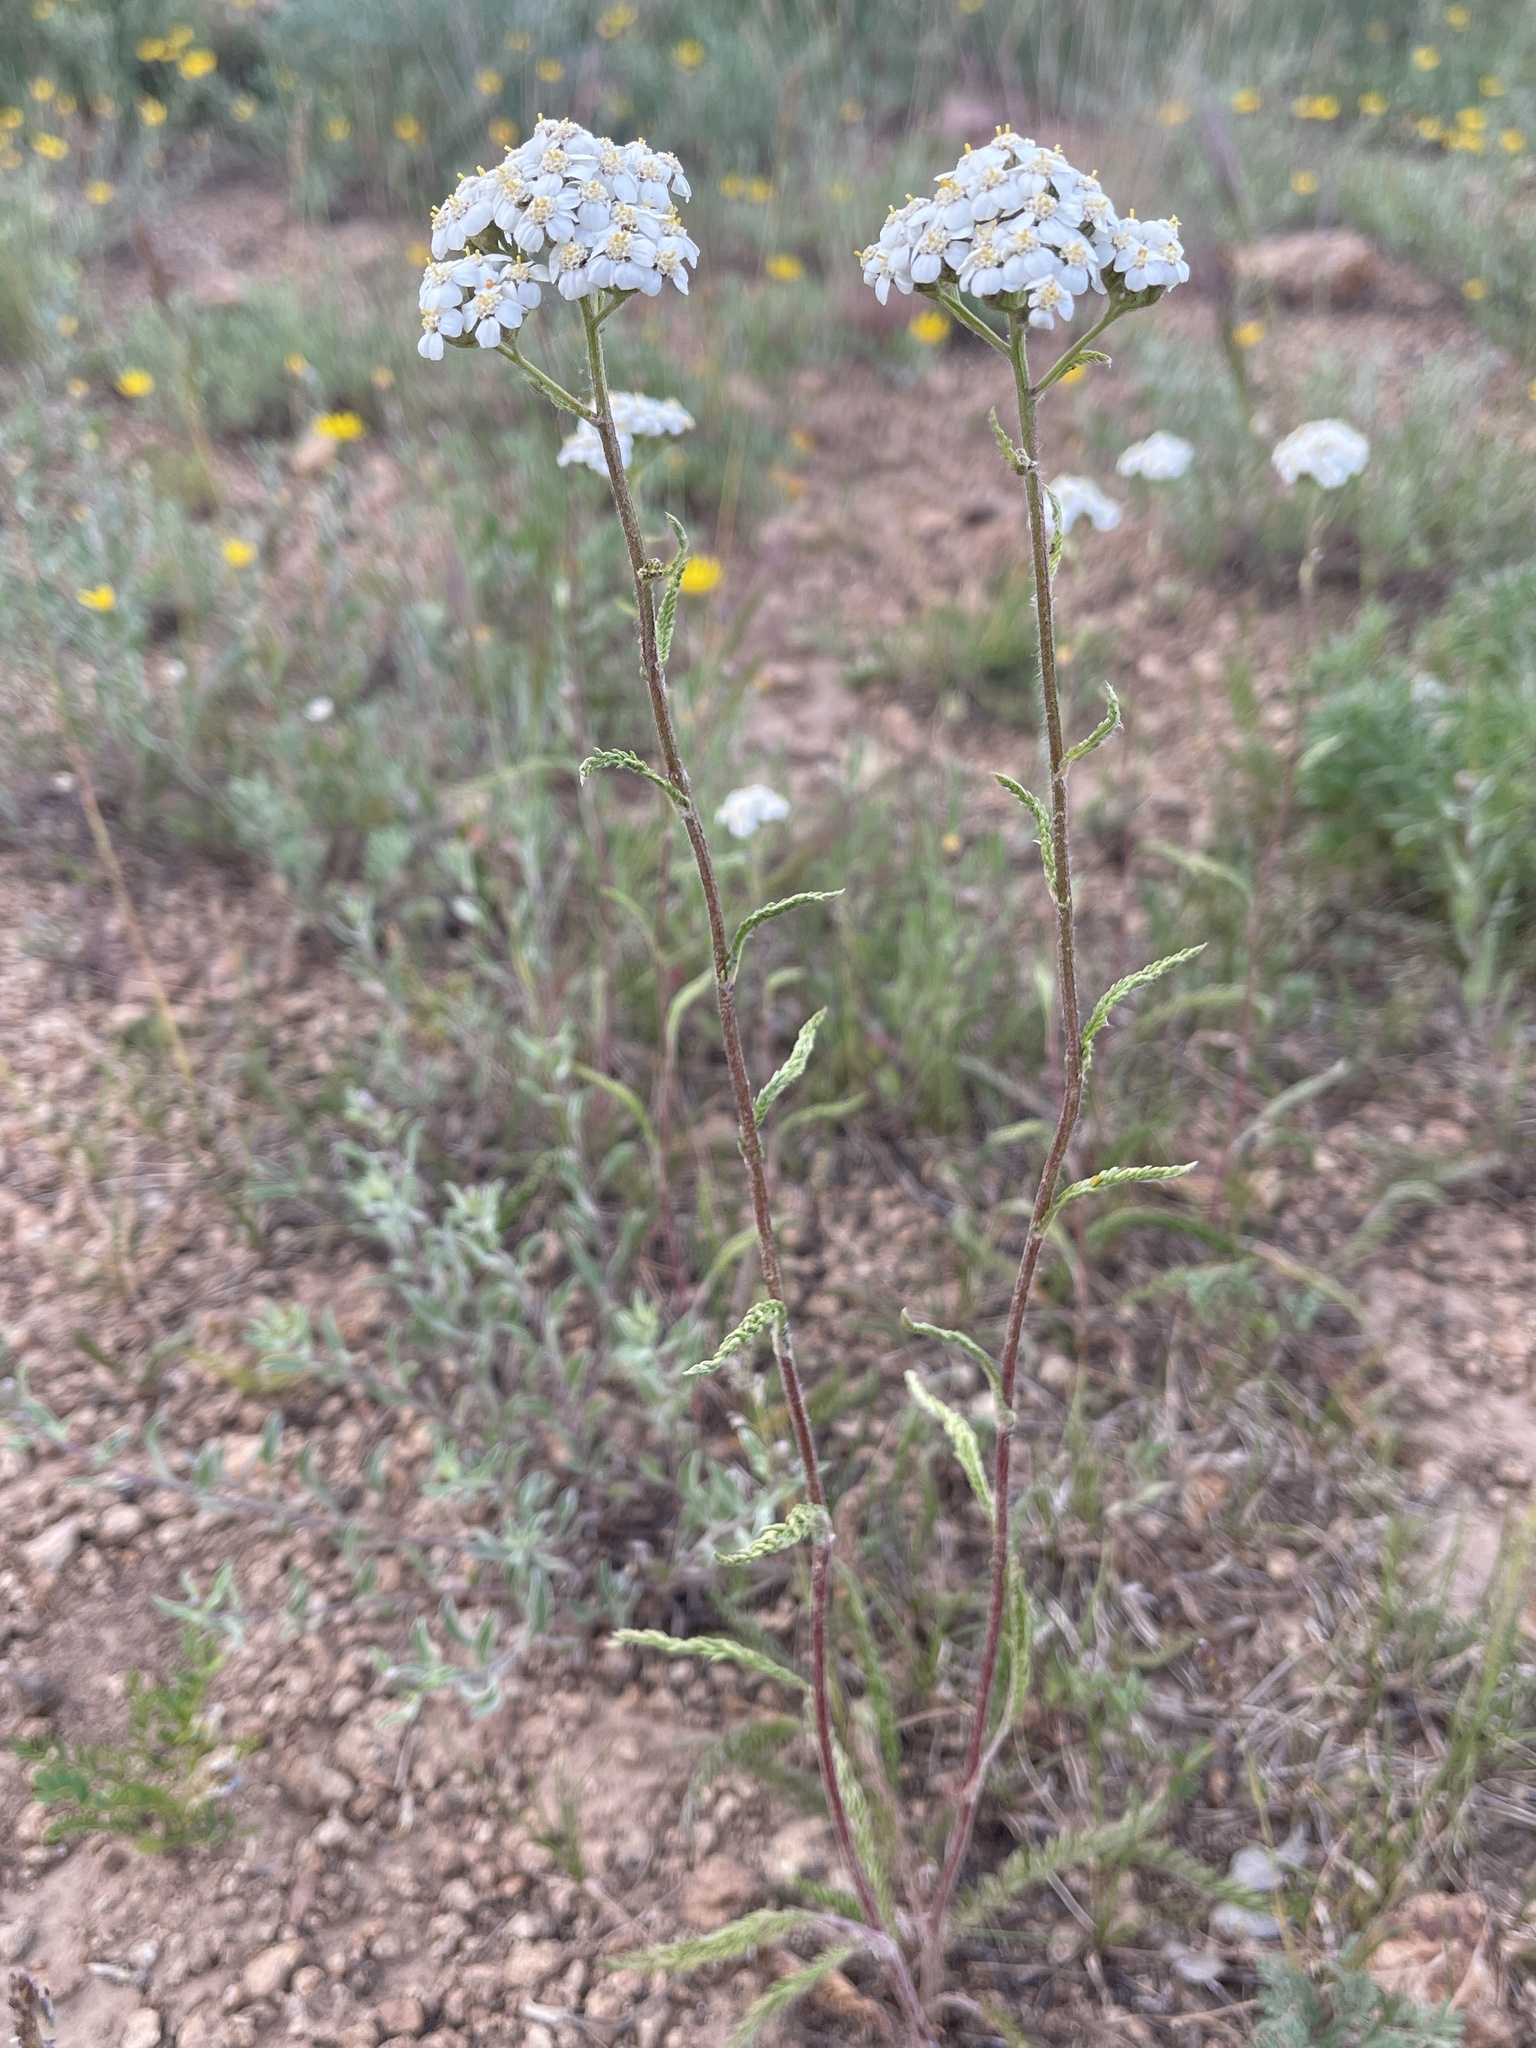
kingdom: Plantae
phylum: Tracheophyta
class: Magnoliopsida
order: Asterales
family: Asteraceae
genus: Achillea
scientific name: Achillea millefolium
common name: Yarrow
